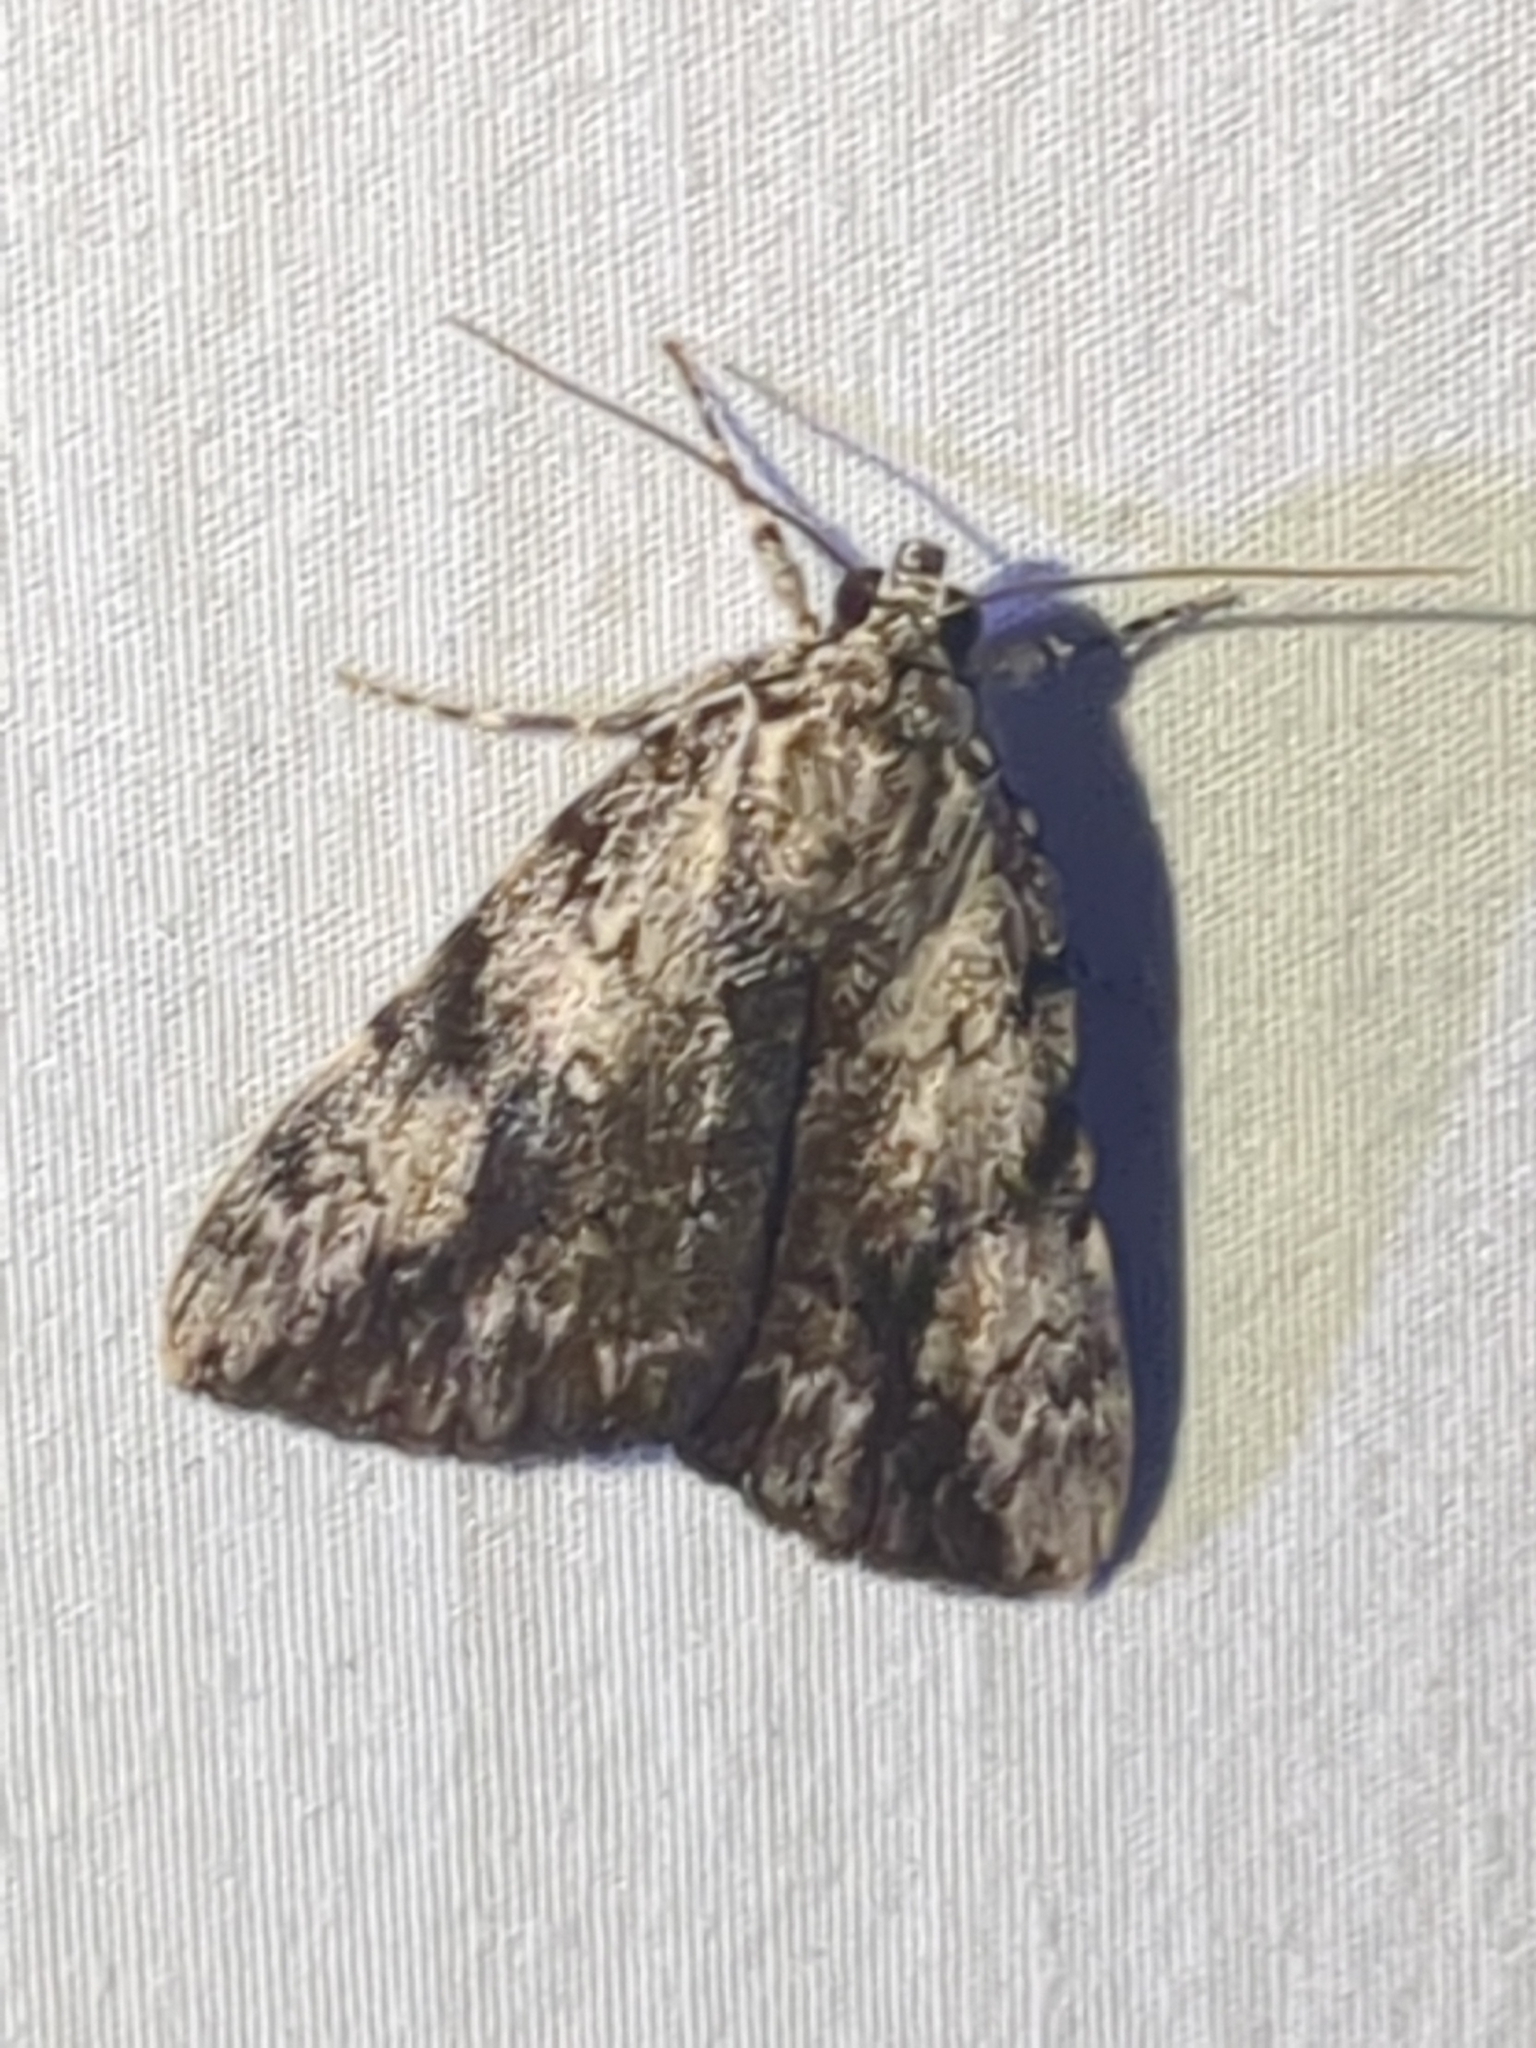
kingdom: Animalia
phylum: Arthropoda
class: Insecta
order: Lepidoptera
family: Erebidae
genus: Catocala
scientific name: Catocala amica
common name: Girlfriend underwing
